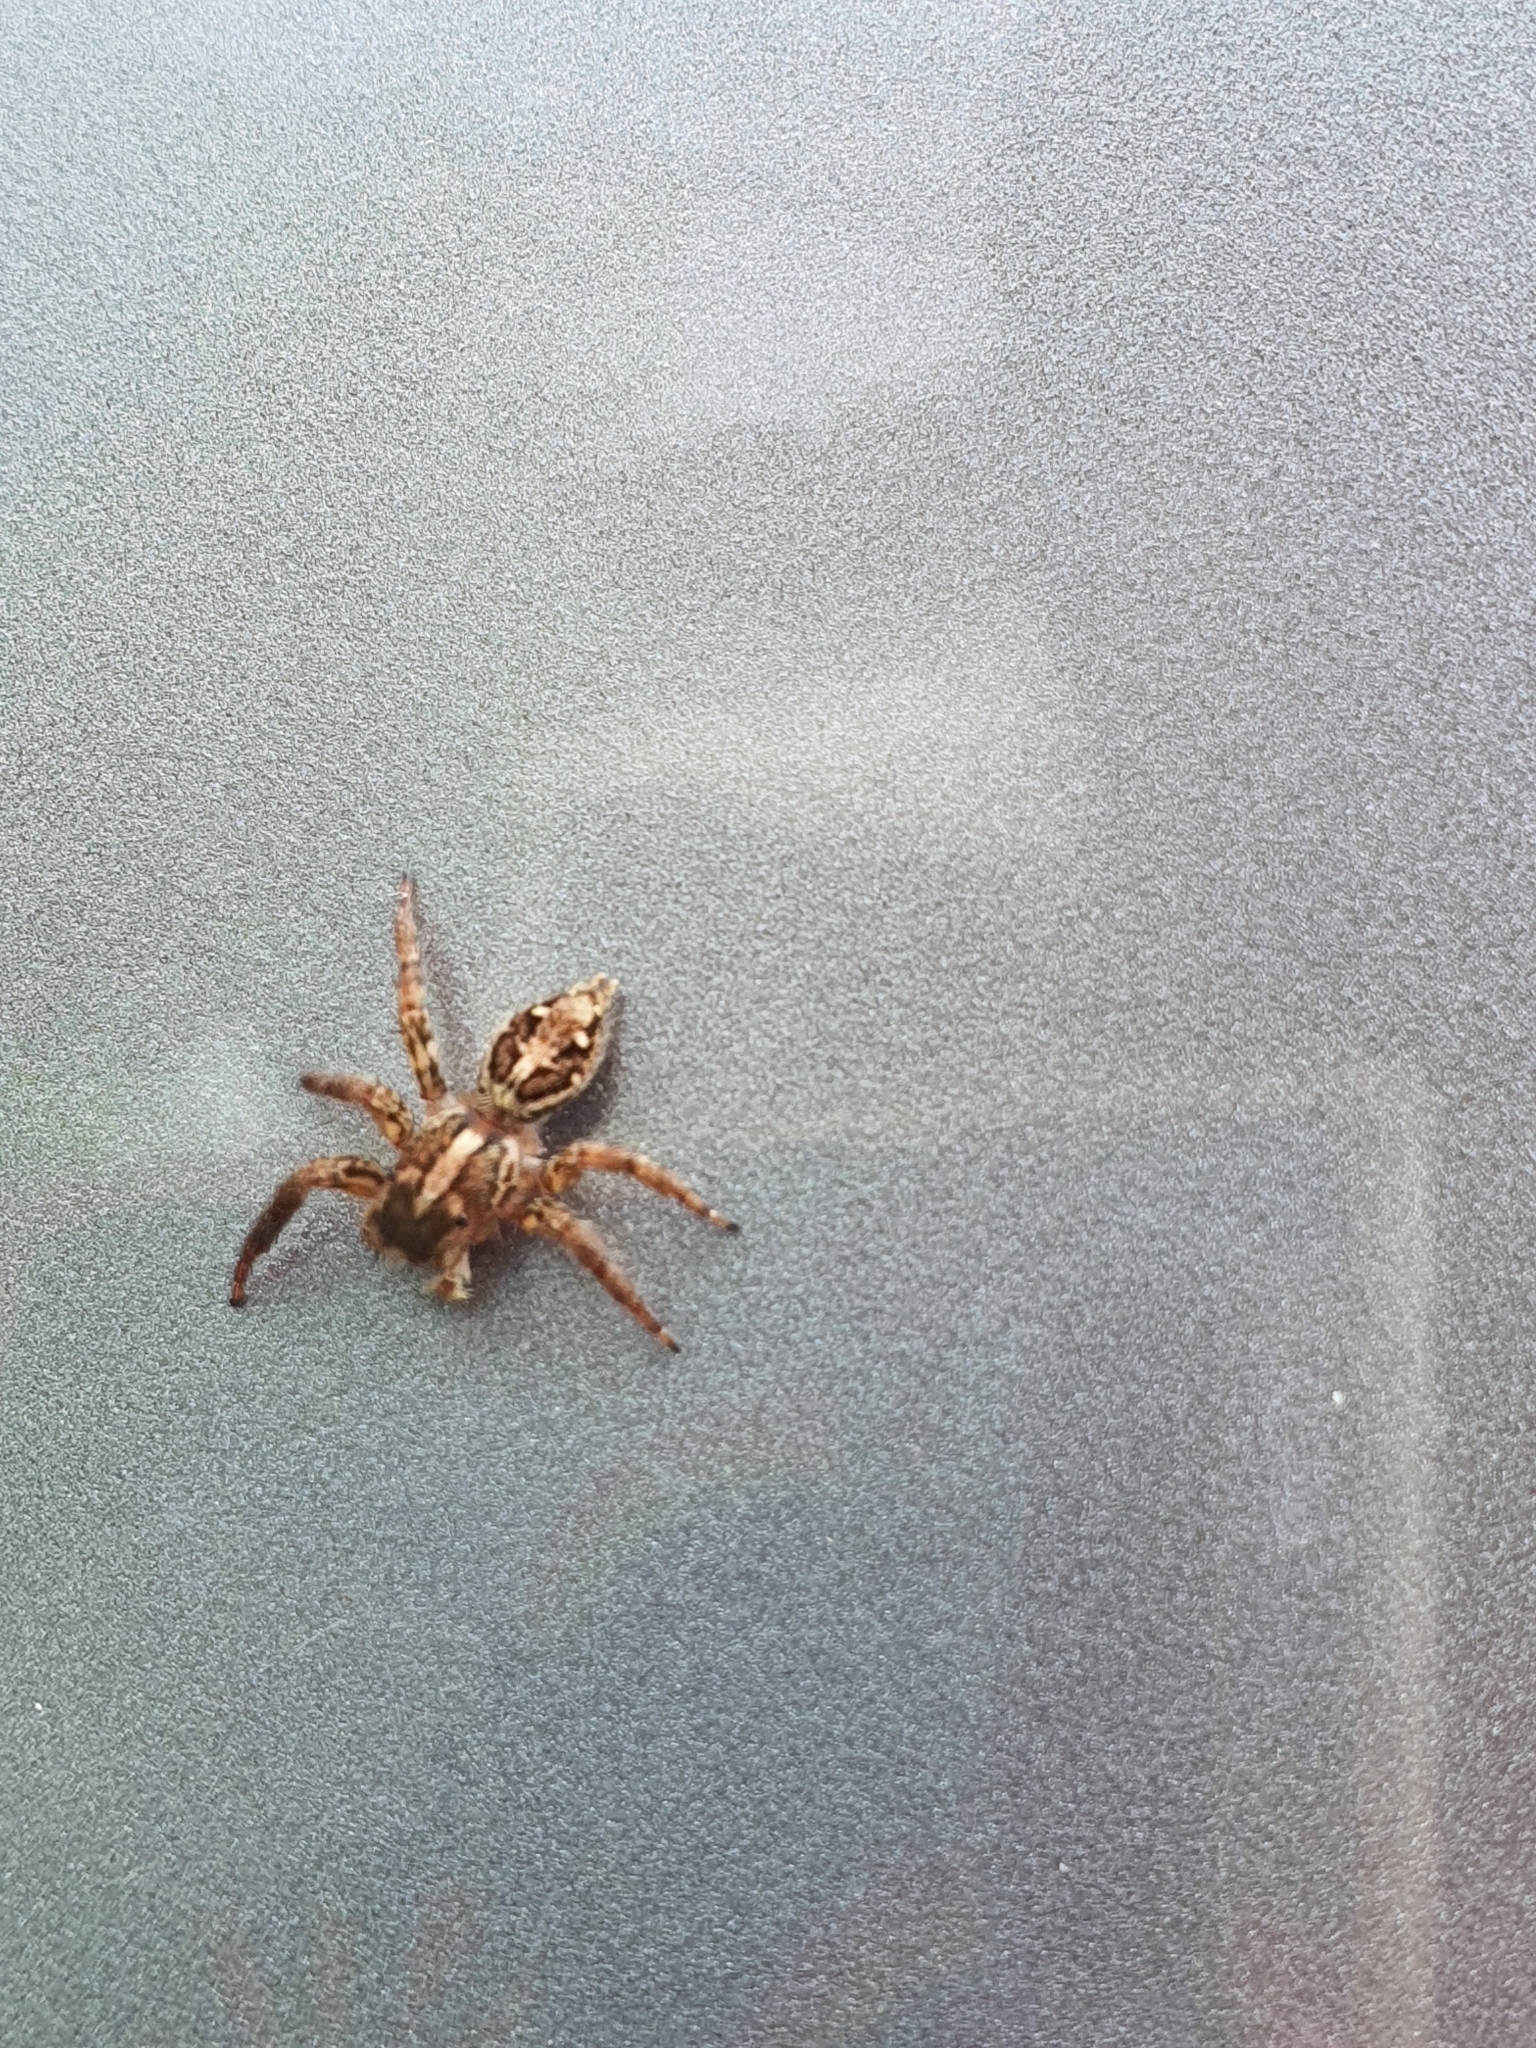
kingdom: Animalia
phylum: Arthropoda
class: Arachnida
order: Araneae
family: Salticidae
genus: Plexippus
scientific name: Plexippus paykulli
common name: Pantropical jumper
